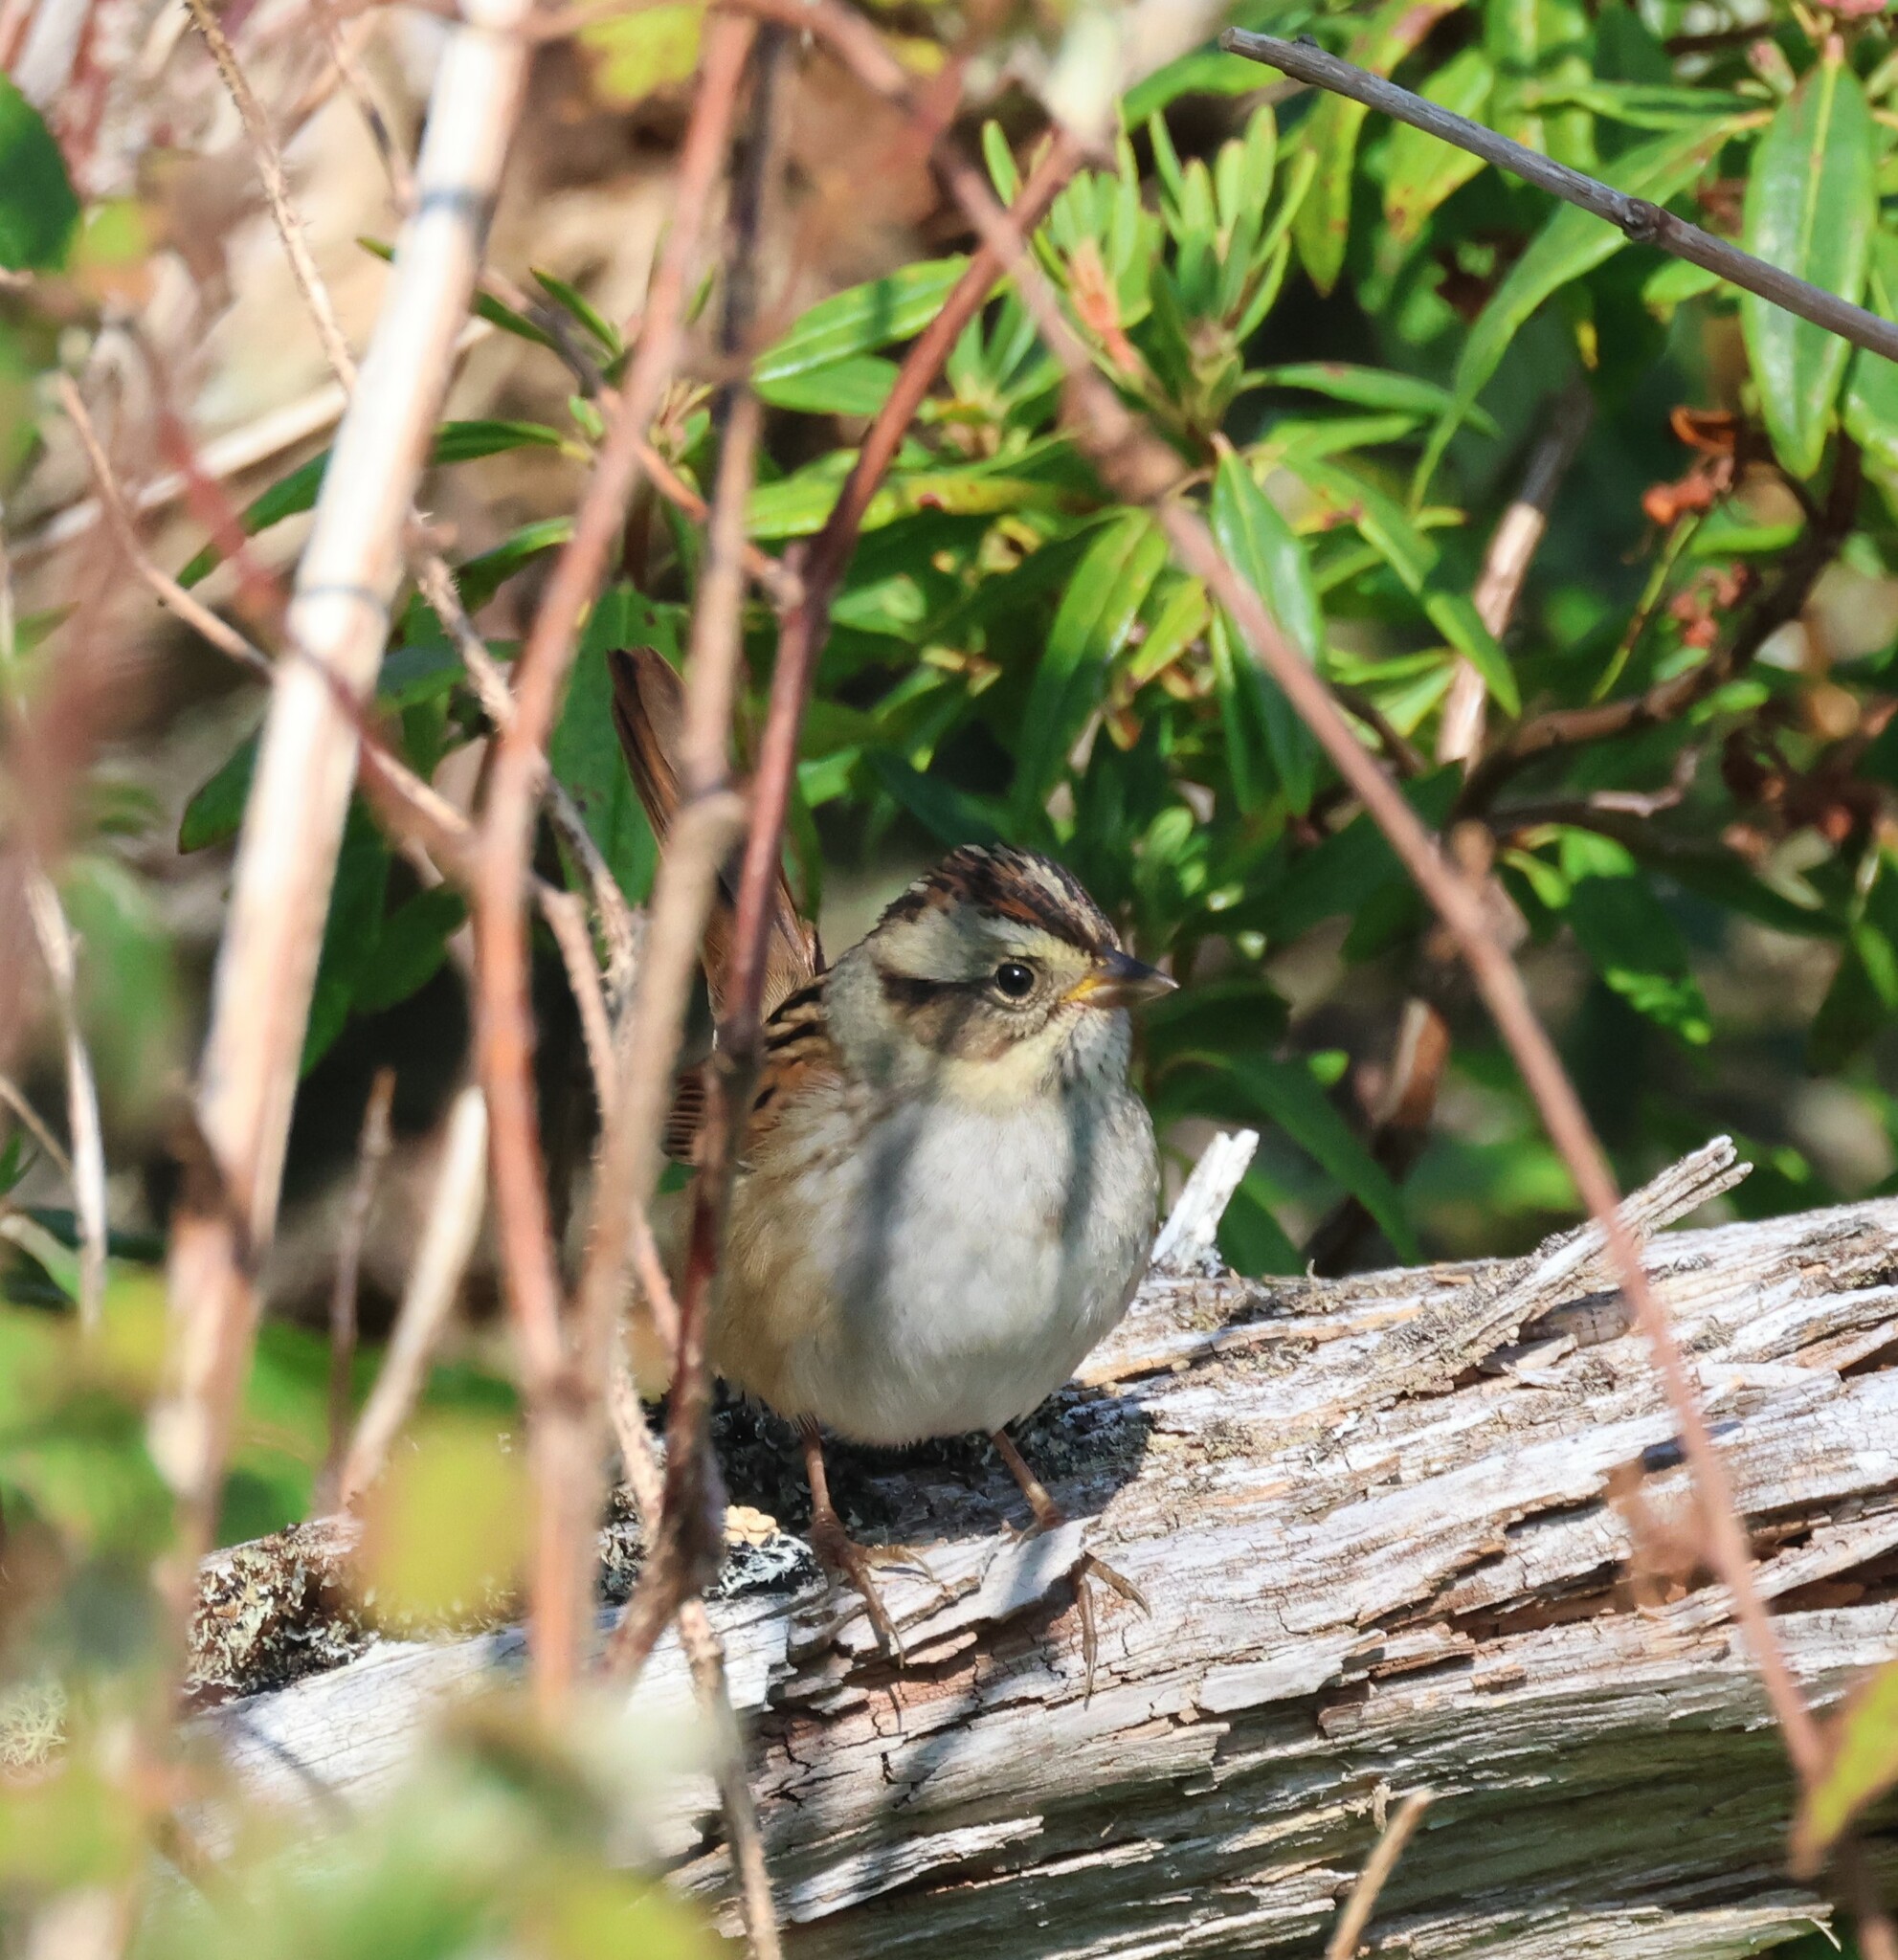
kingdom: Animalia
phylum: Chordata
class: Aves
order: Passeriformes
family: Passerellidae
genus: Melospiza
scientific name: Melospiza georgiana
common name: Swamp sparrow
